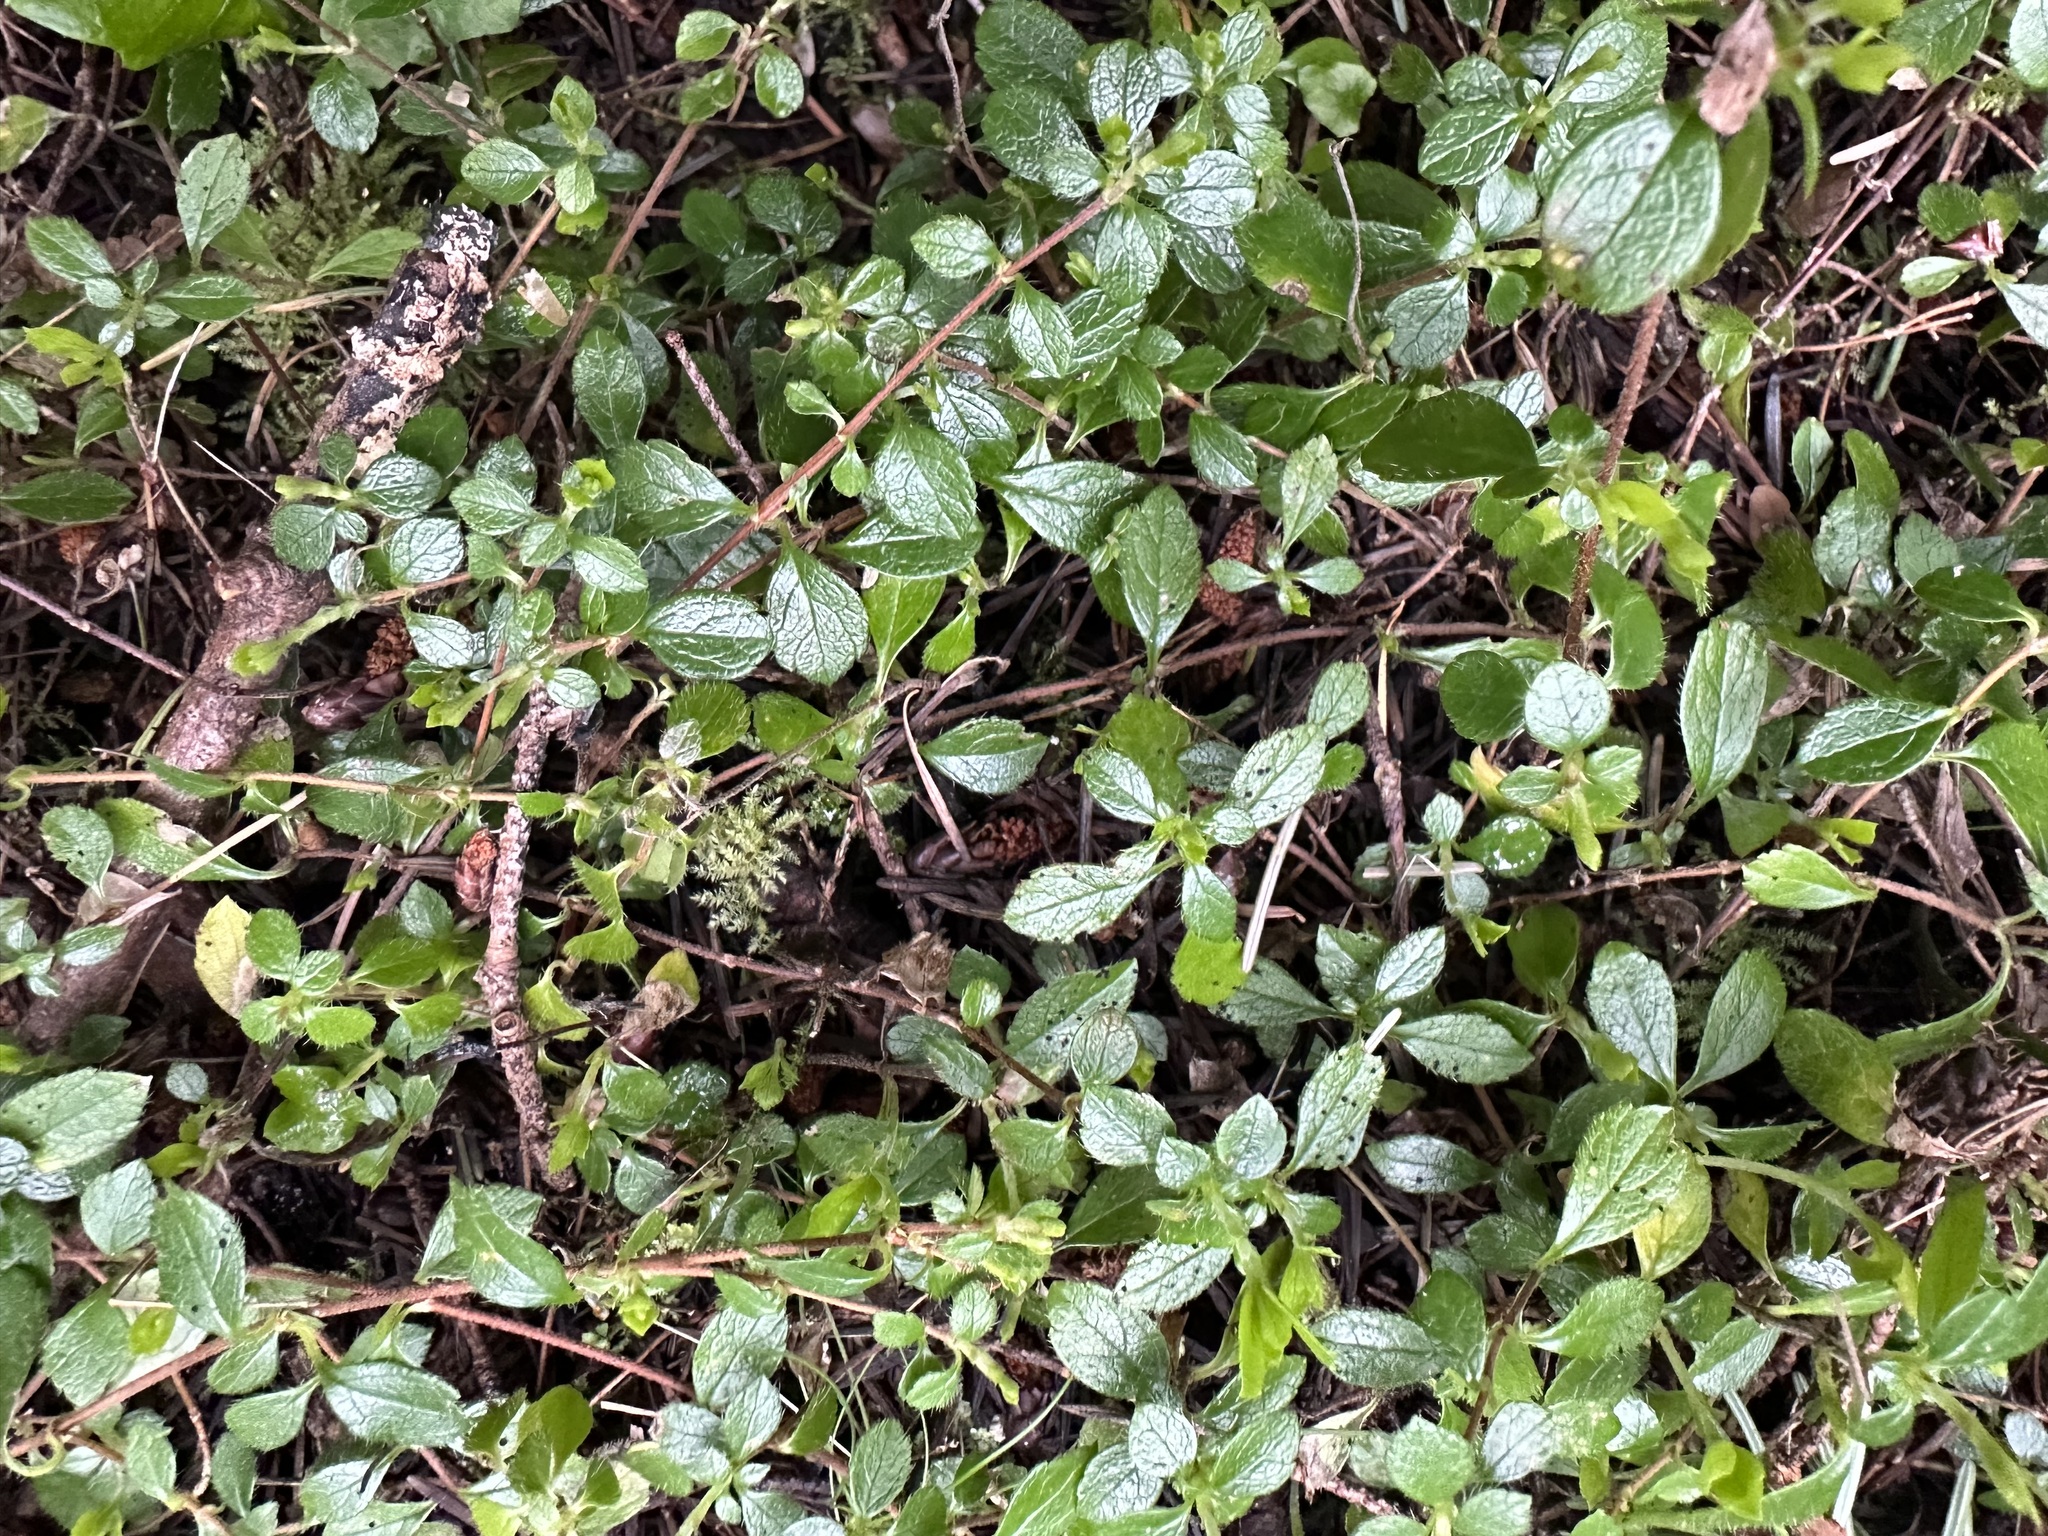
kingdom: Plantae
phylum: Tracheophyta
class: Magnoliopsida
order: Dipsacales
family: Caprifoliaceae
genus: Linnaea
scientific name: Linnaea borealis
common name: Twinflower
